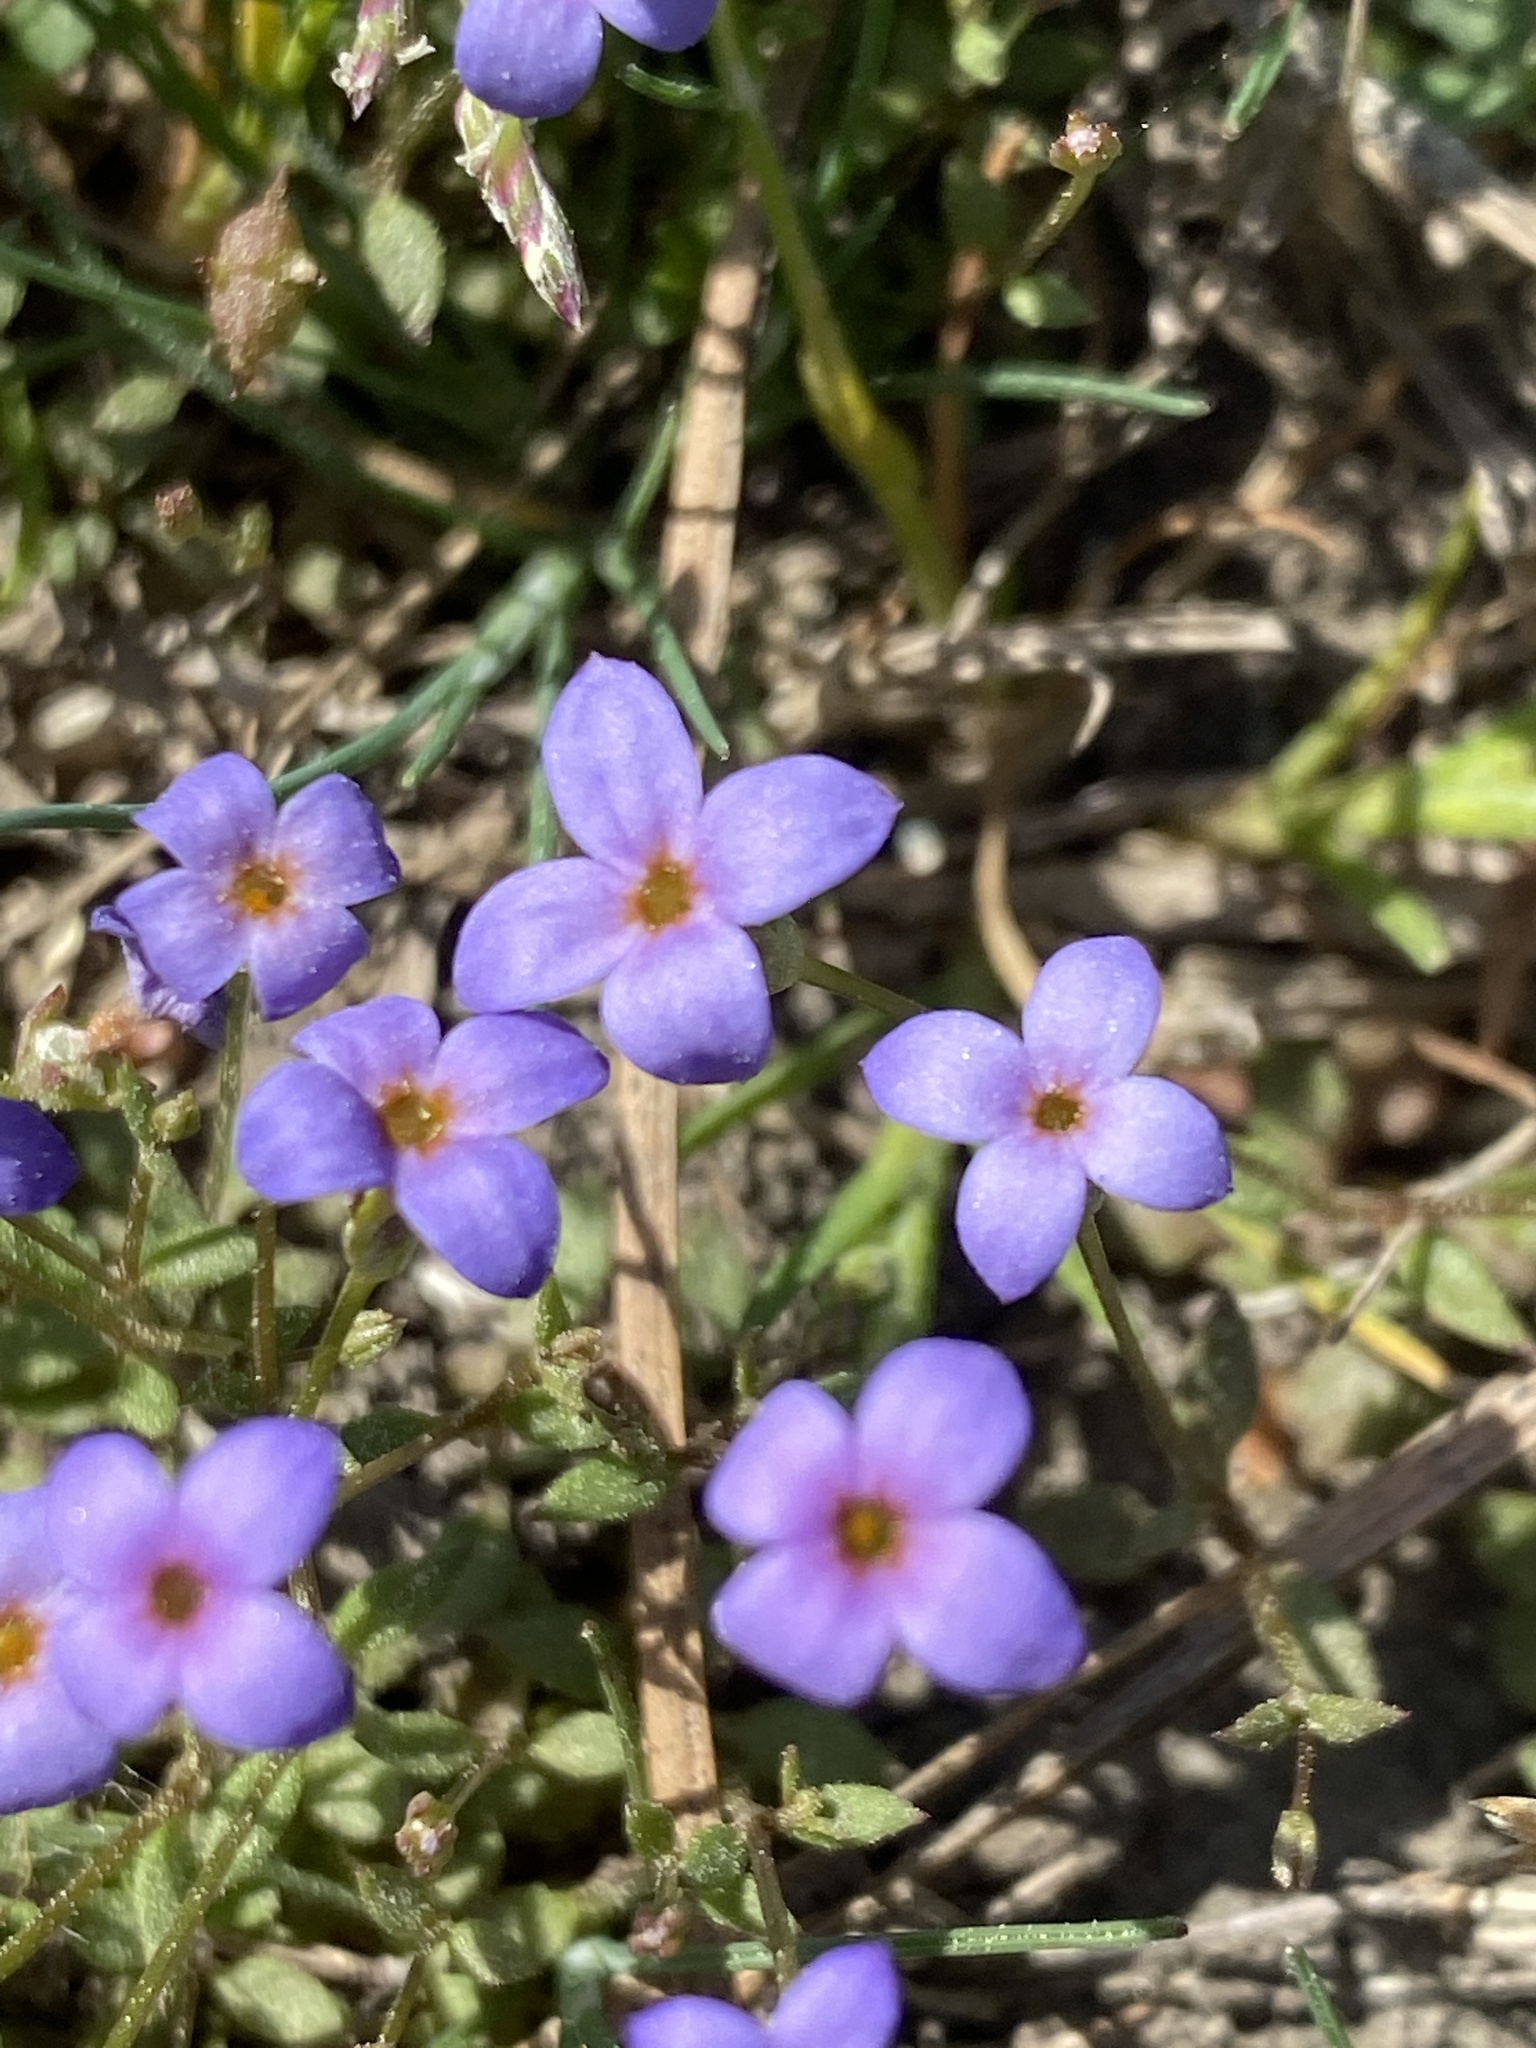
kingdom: Plantae
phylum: Tracheophyta
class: Magnoliopsida
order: Gentianales
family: Rubiaceae
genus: Houstonia
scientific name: Houstonia pusilla
